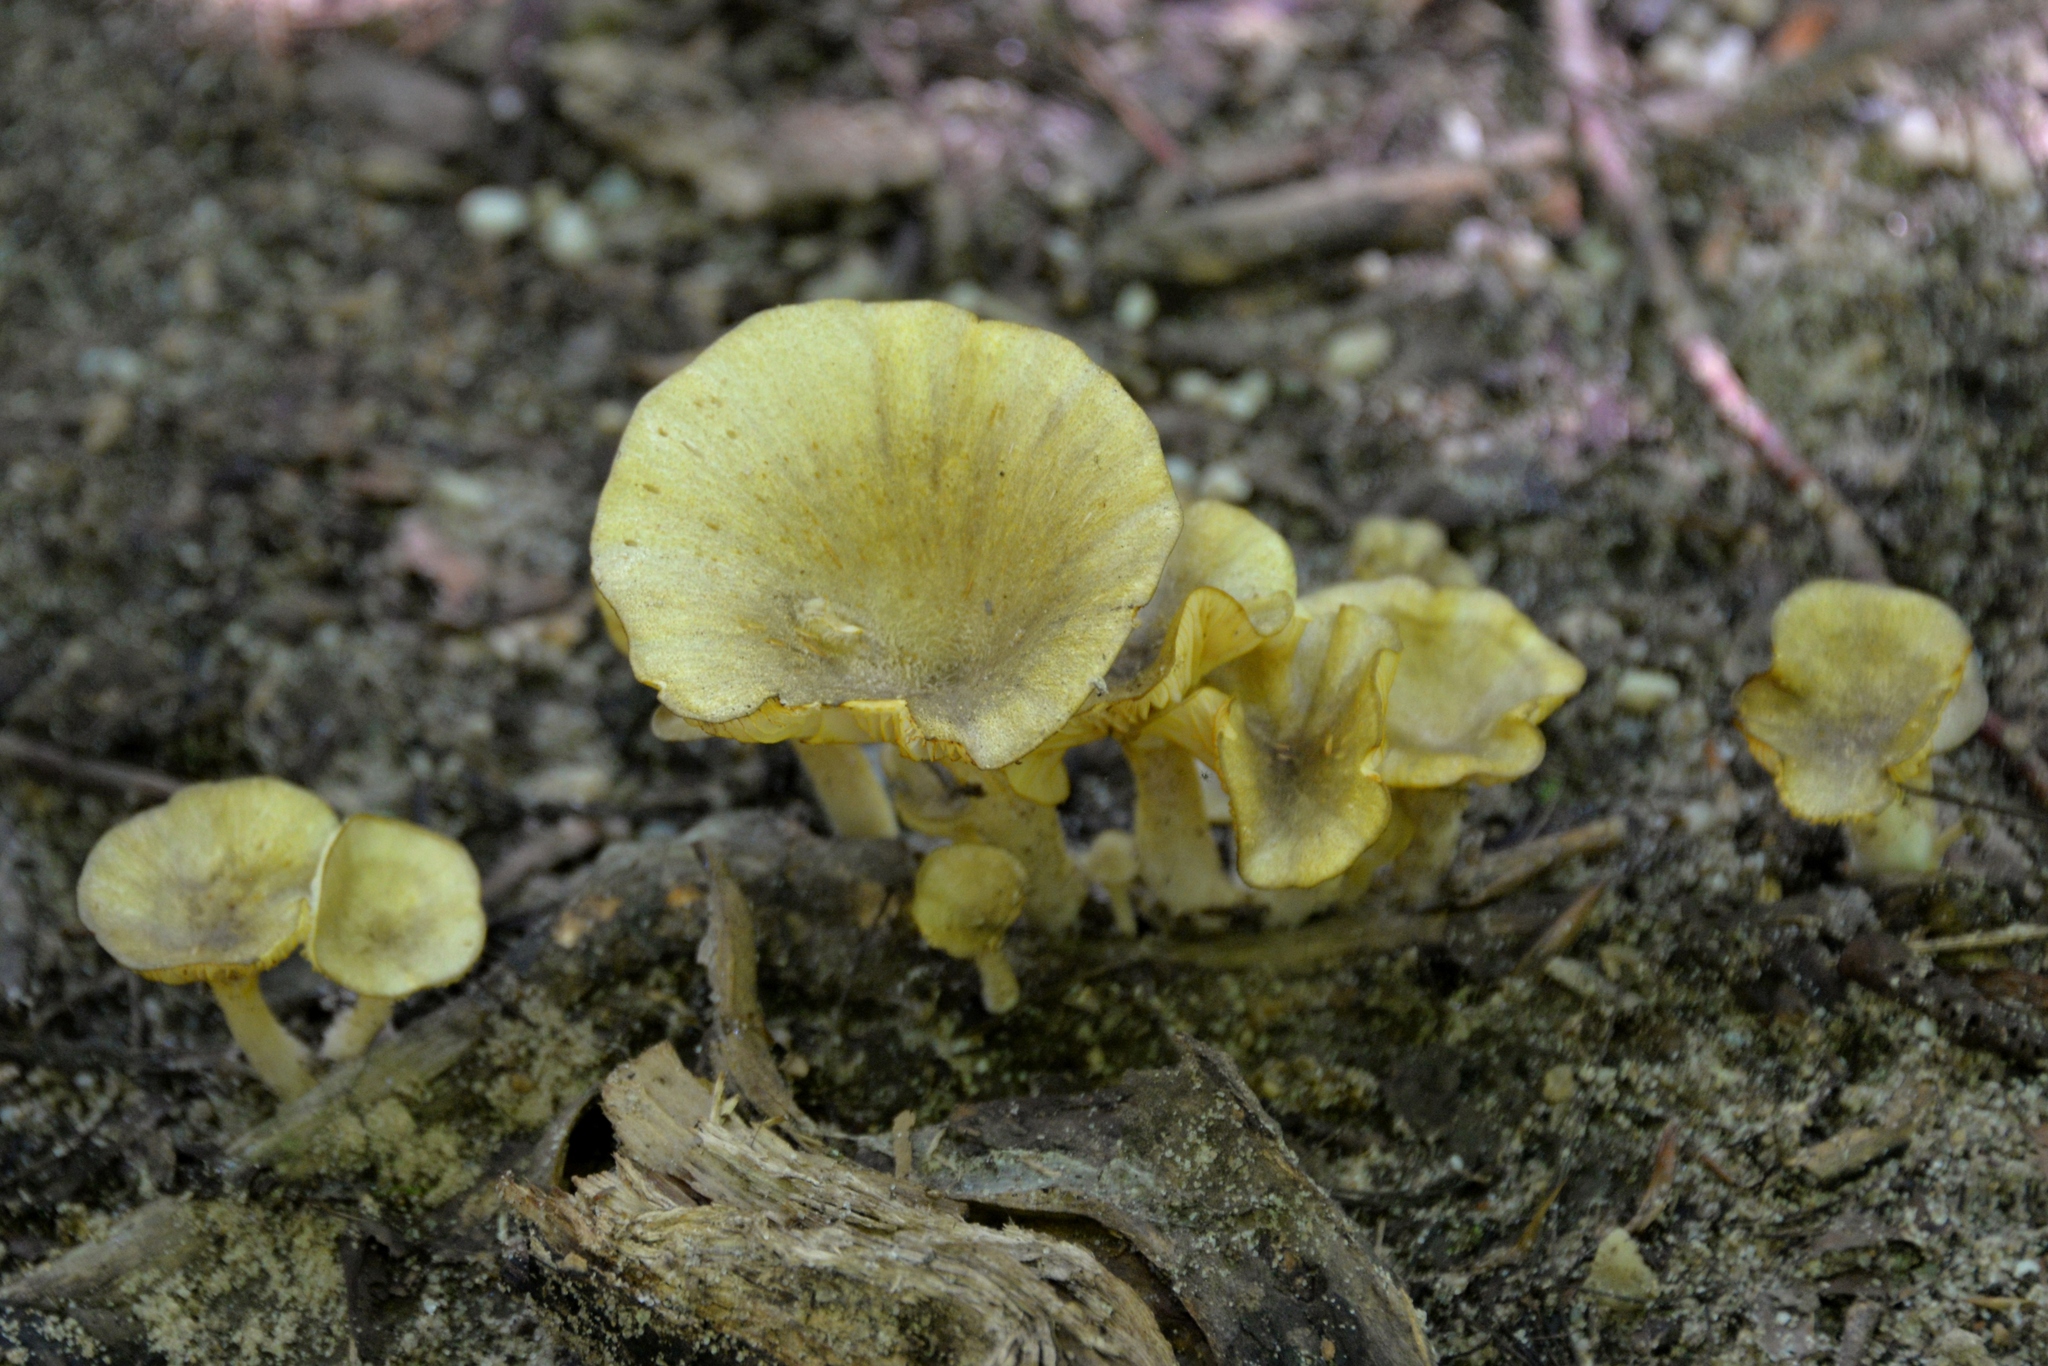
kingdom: Fungi
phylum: Basidiomycota
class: Agaricomycetes
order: Agaricales
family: Marasmiaceae
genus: Gerronema
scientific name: Gerronema strombodes
